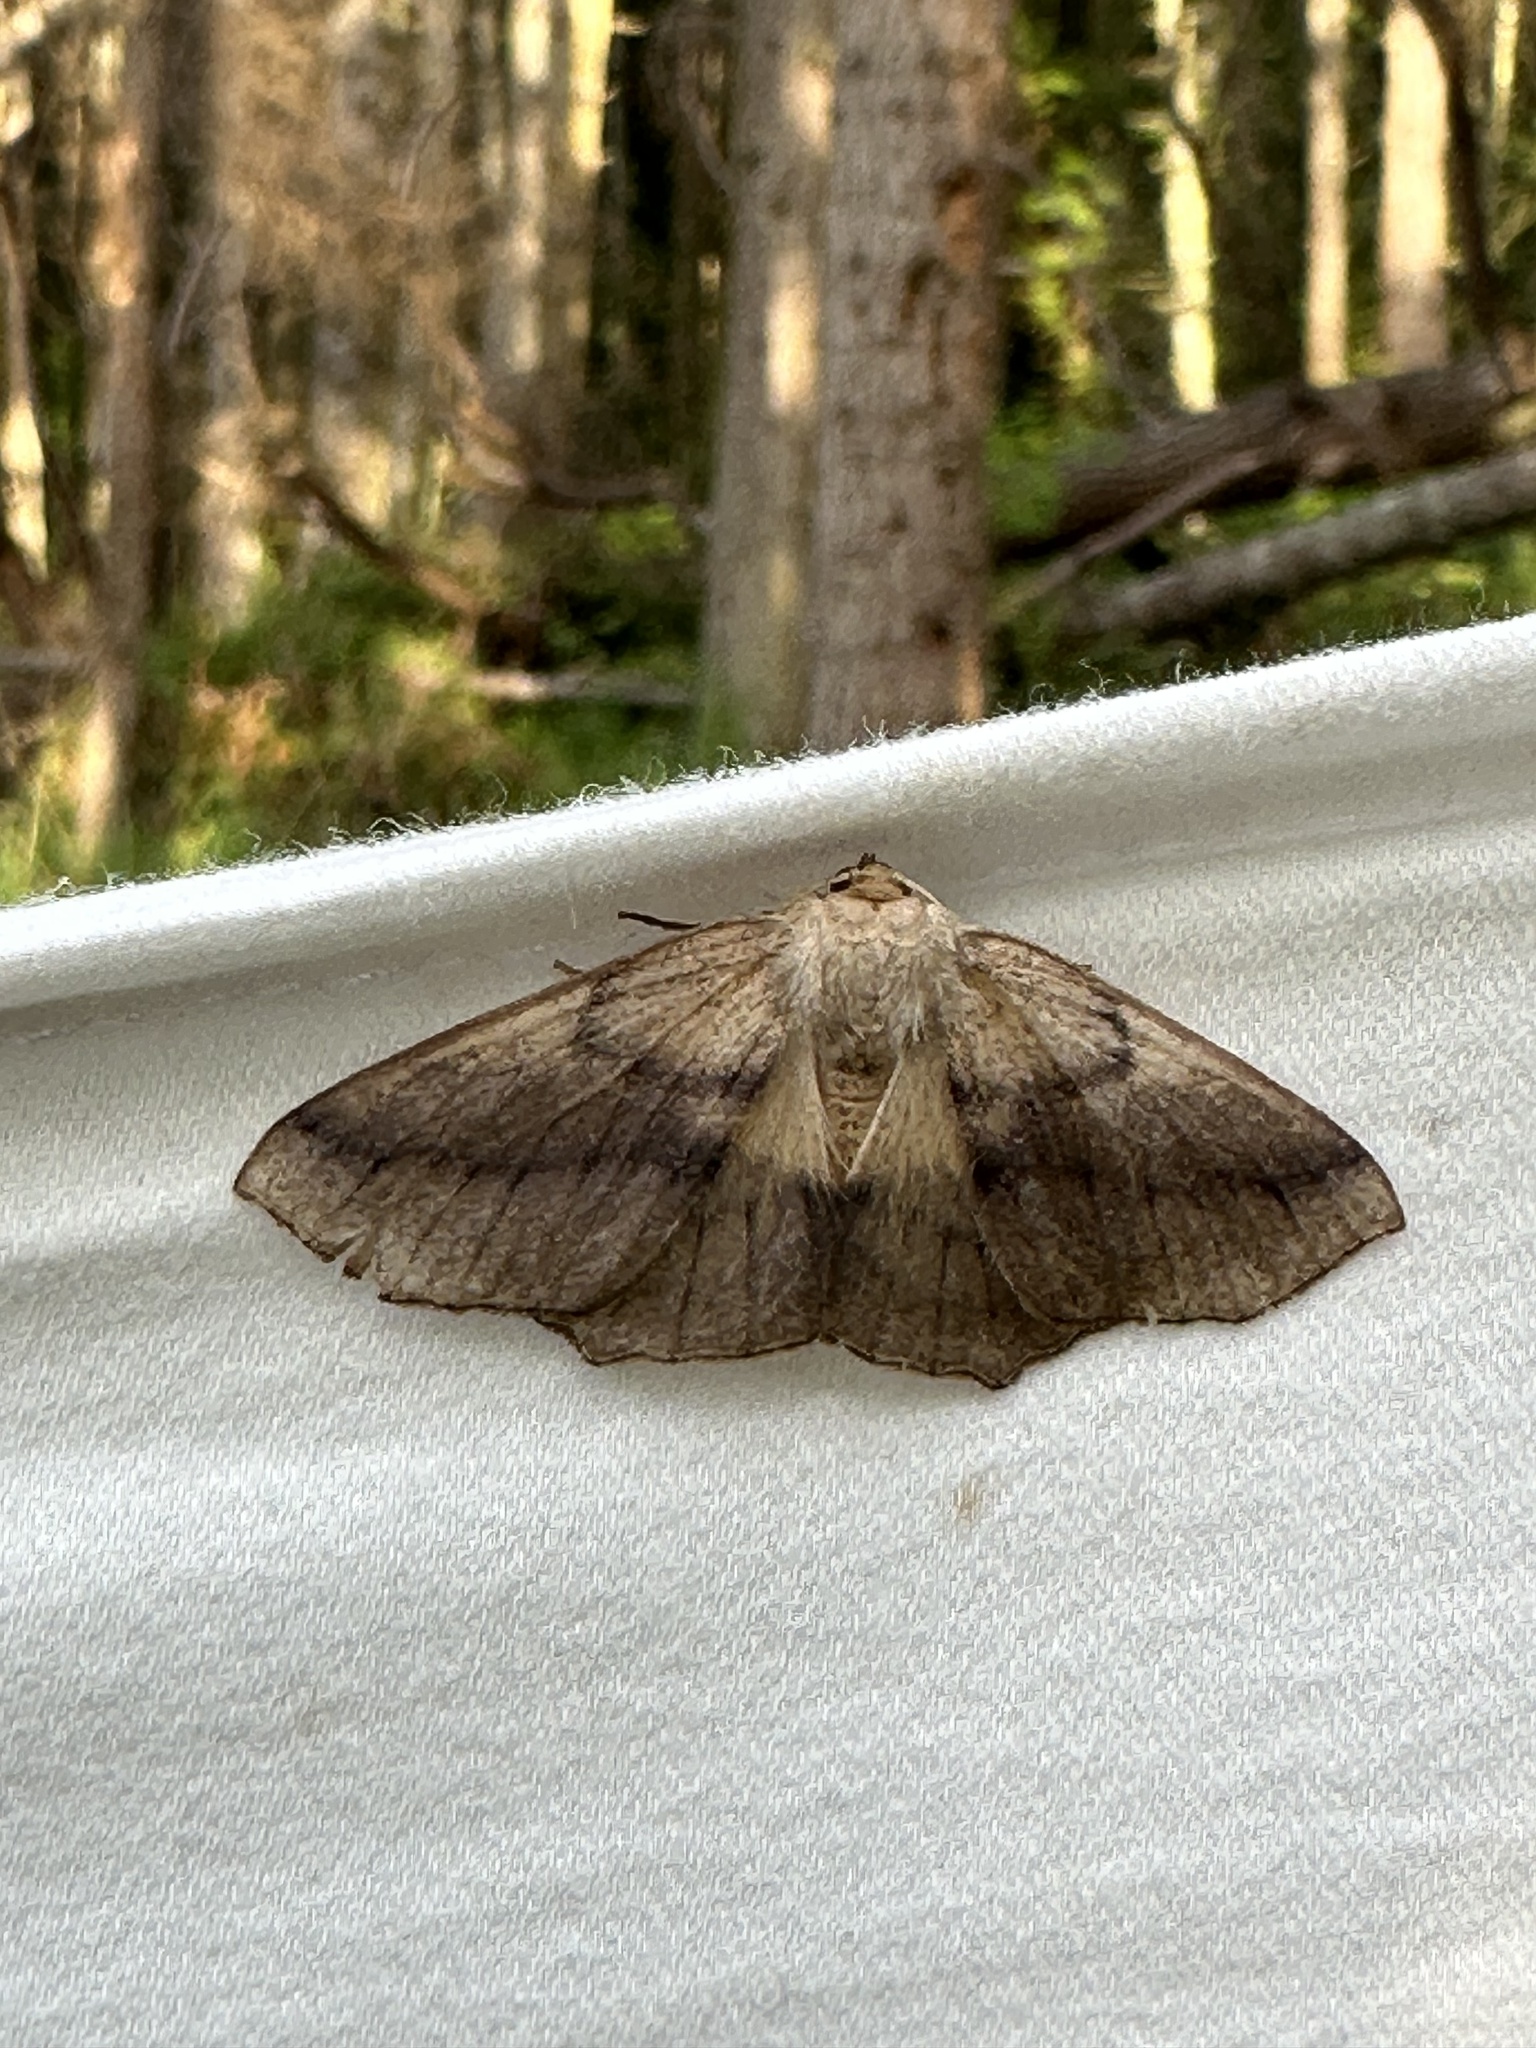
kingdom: Animalia
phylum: Arthropoda
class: Insecta
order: Lepidoptera
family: Geometridae
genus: Sabulodes
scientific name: Sabulodes aegrotata
